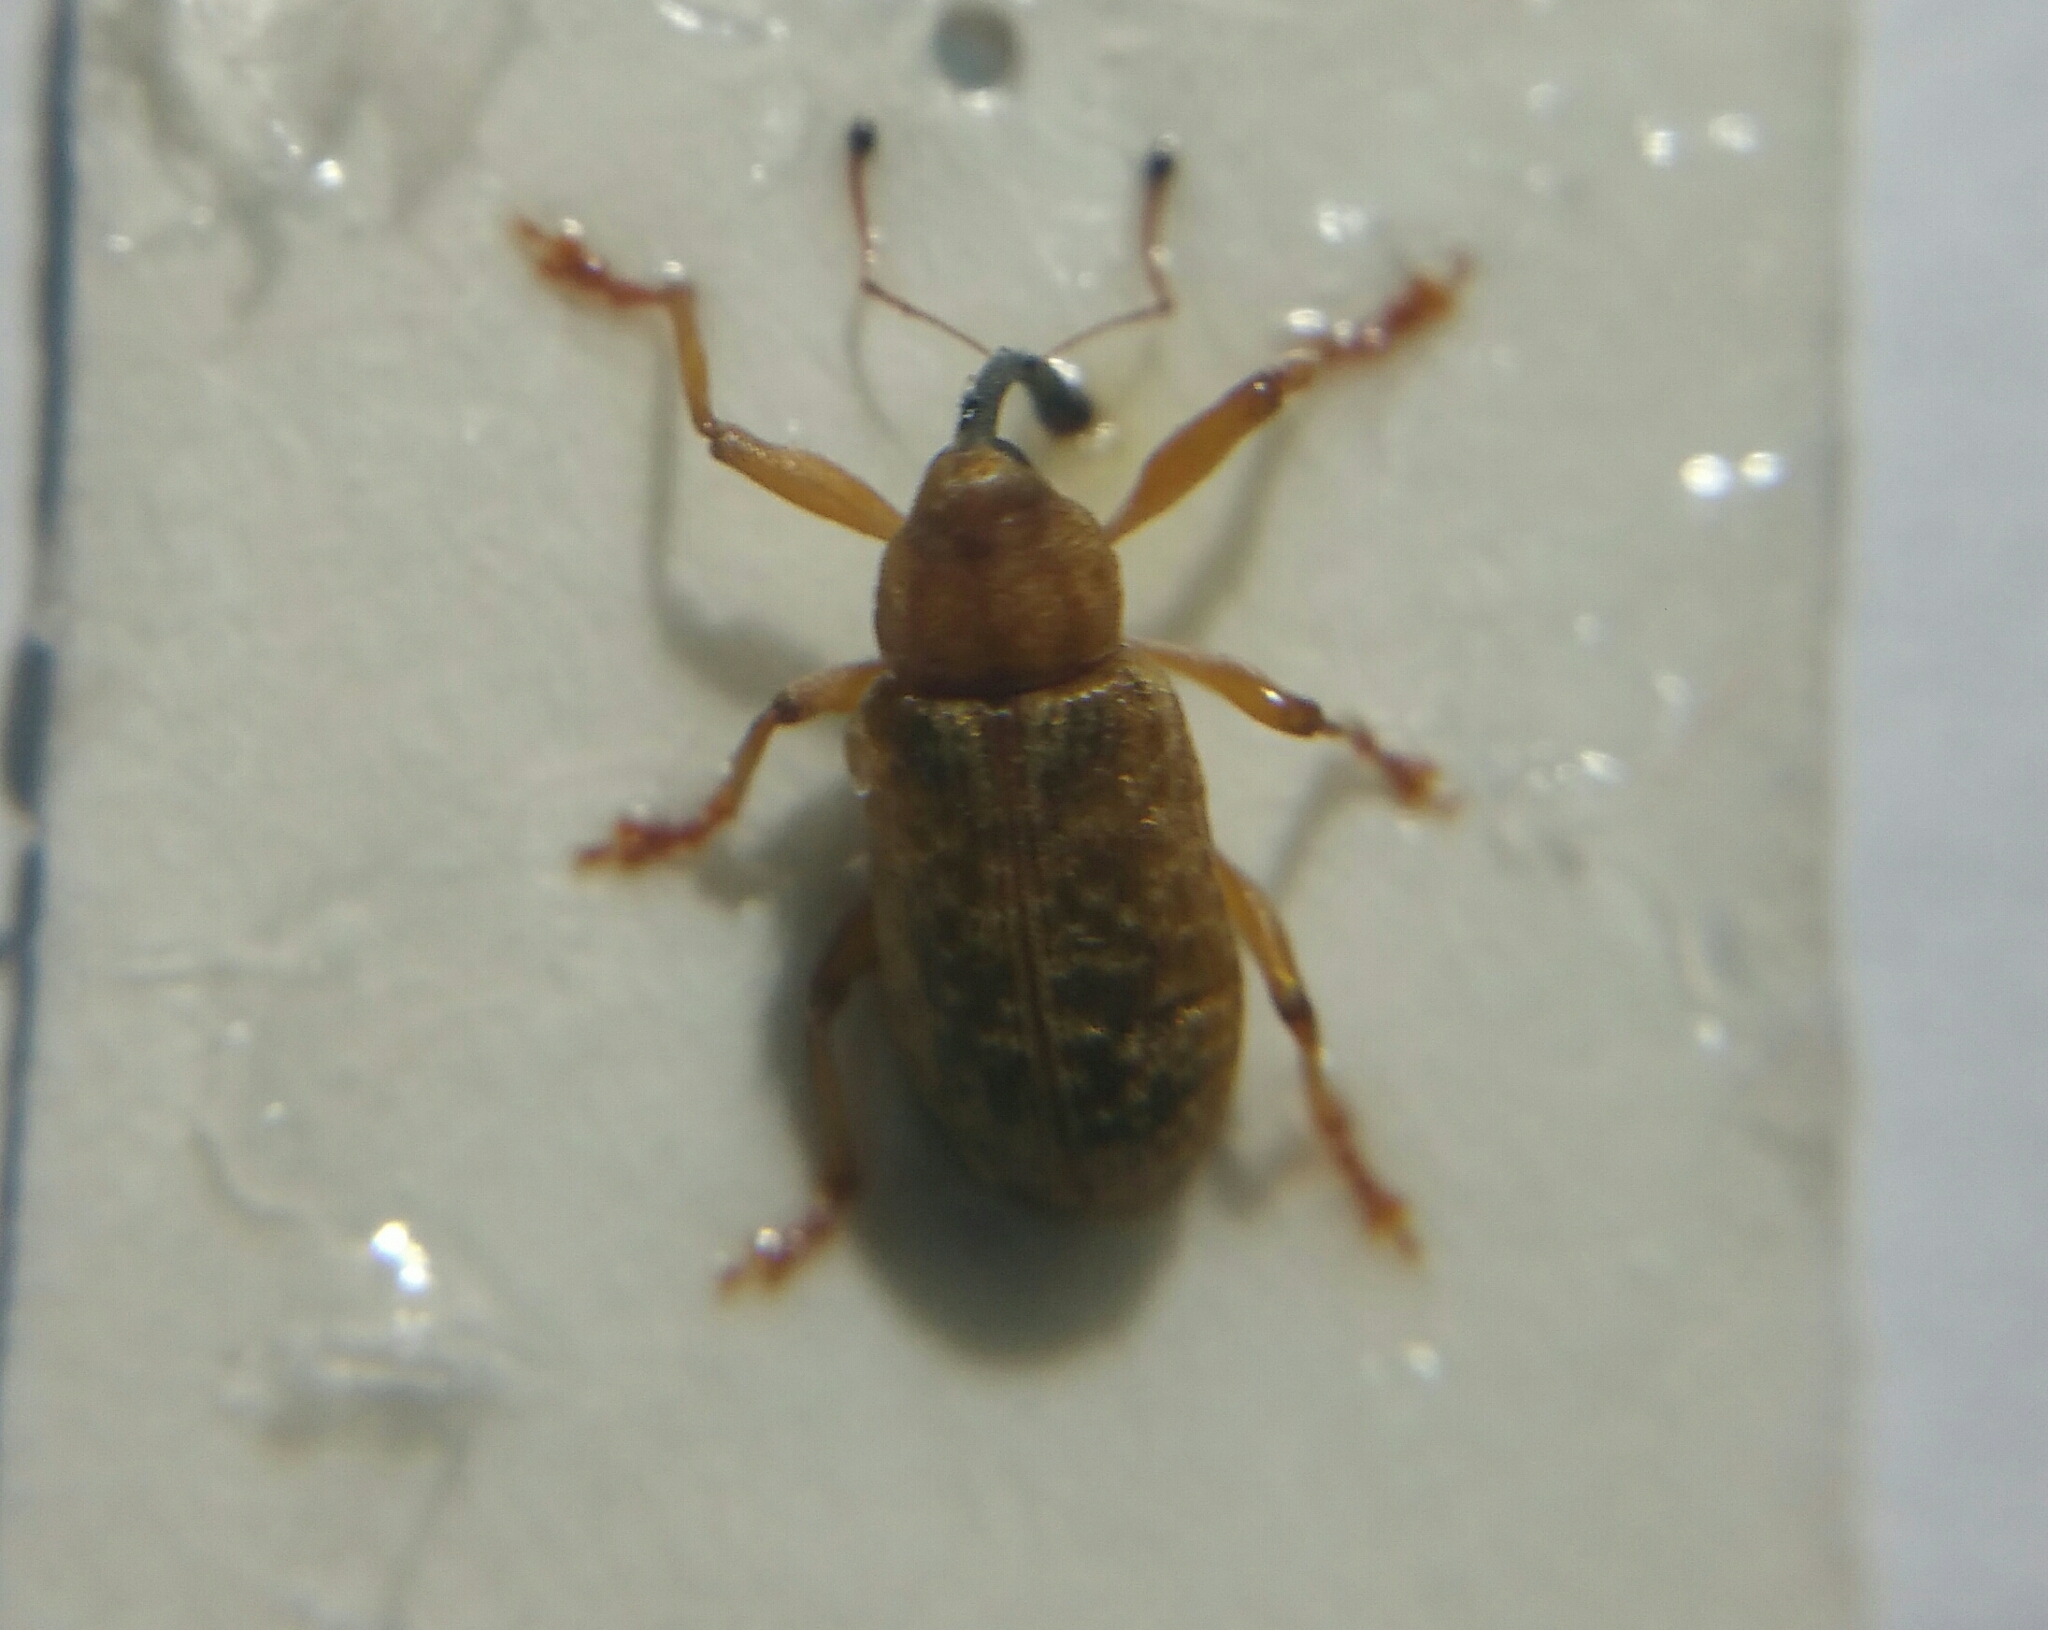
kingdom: Animalia
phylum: Arthropoda
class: Insecta
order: Coleoptera
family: Curculionidae
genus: Dorytomus
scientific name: Dorytomus longimanus
